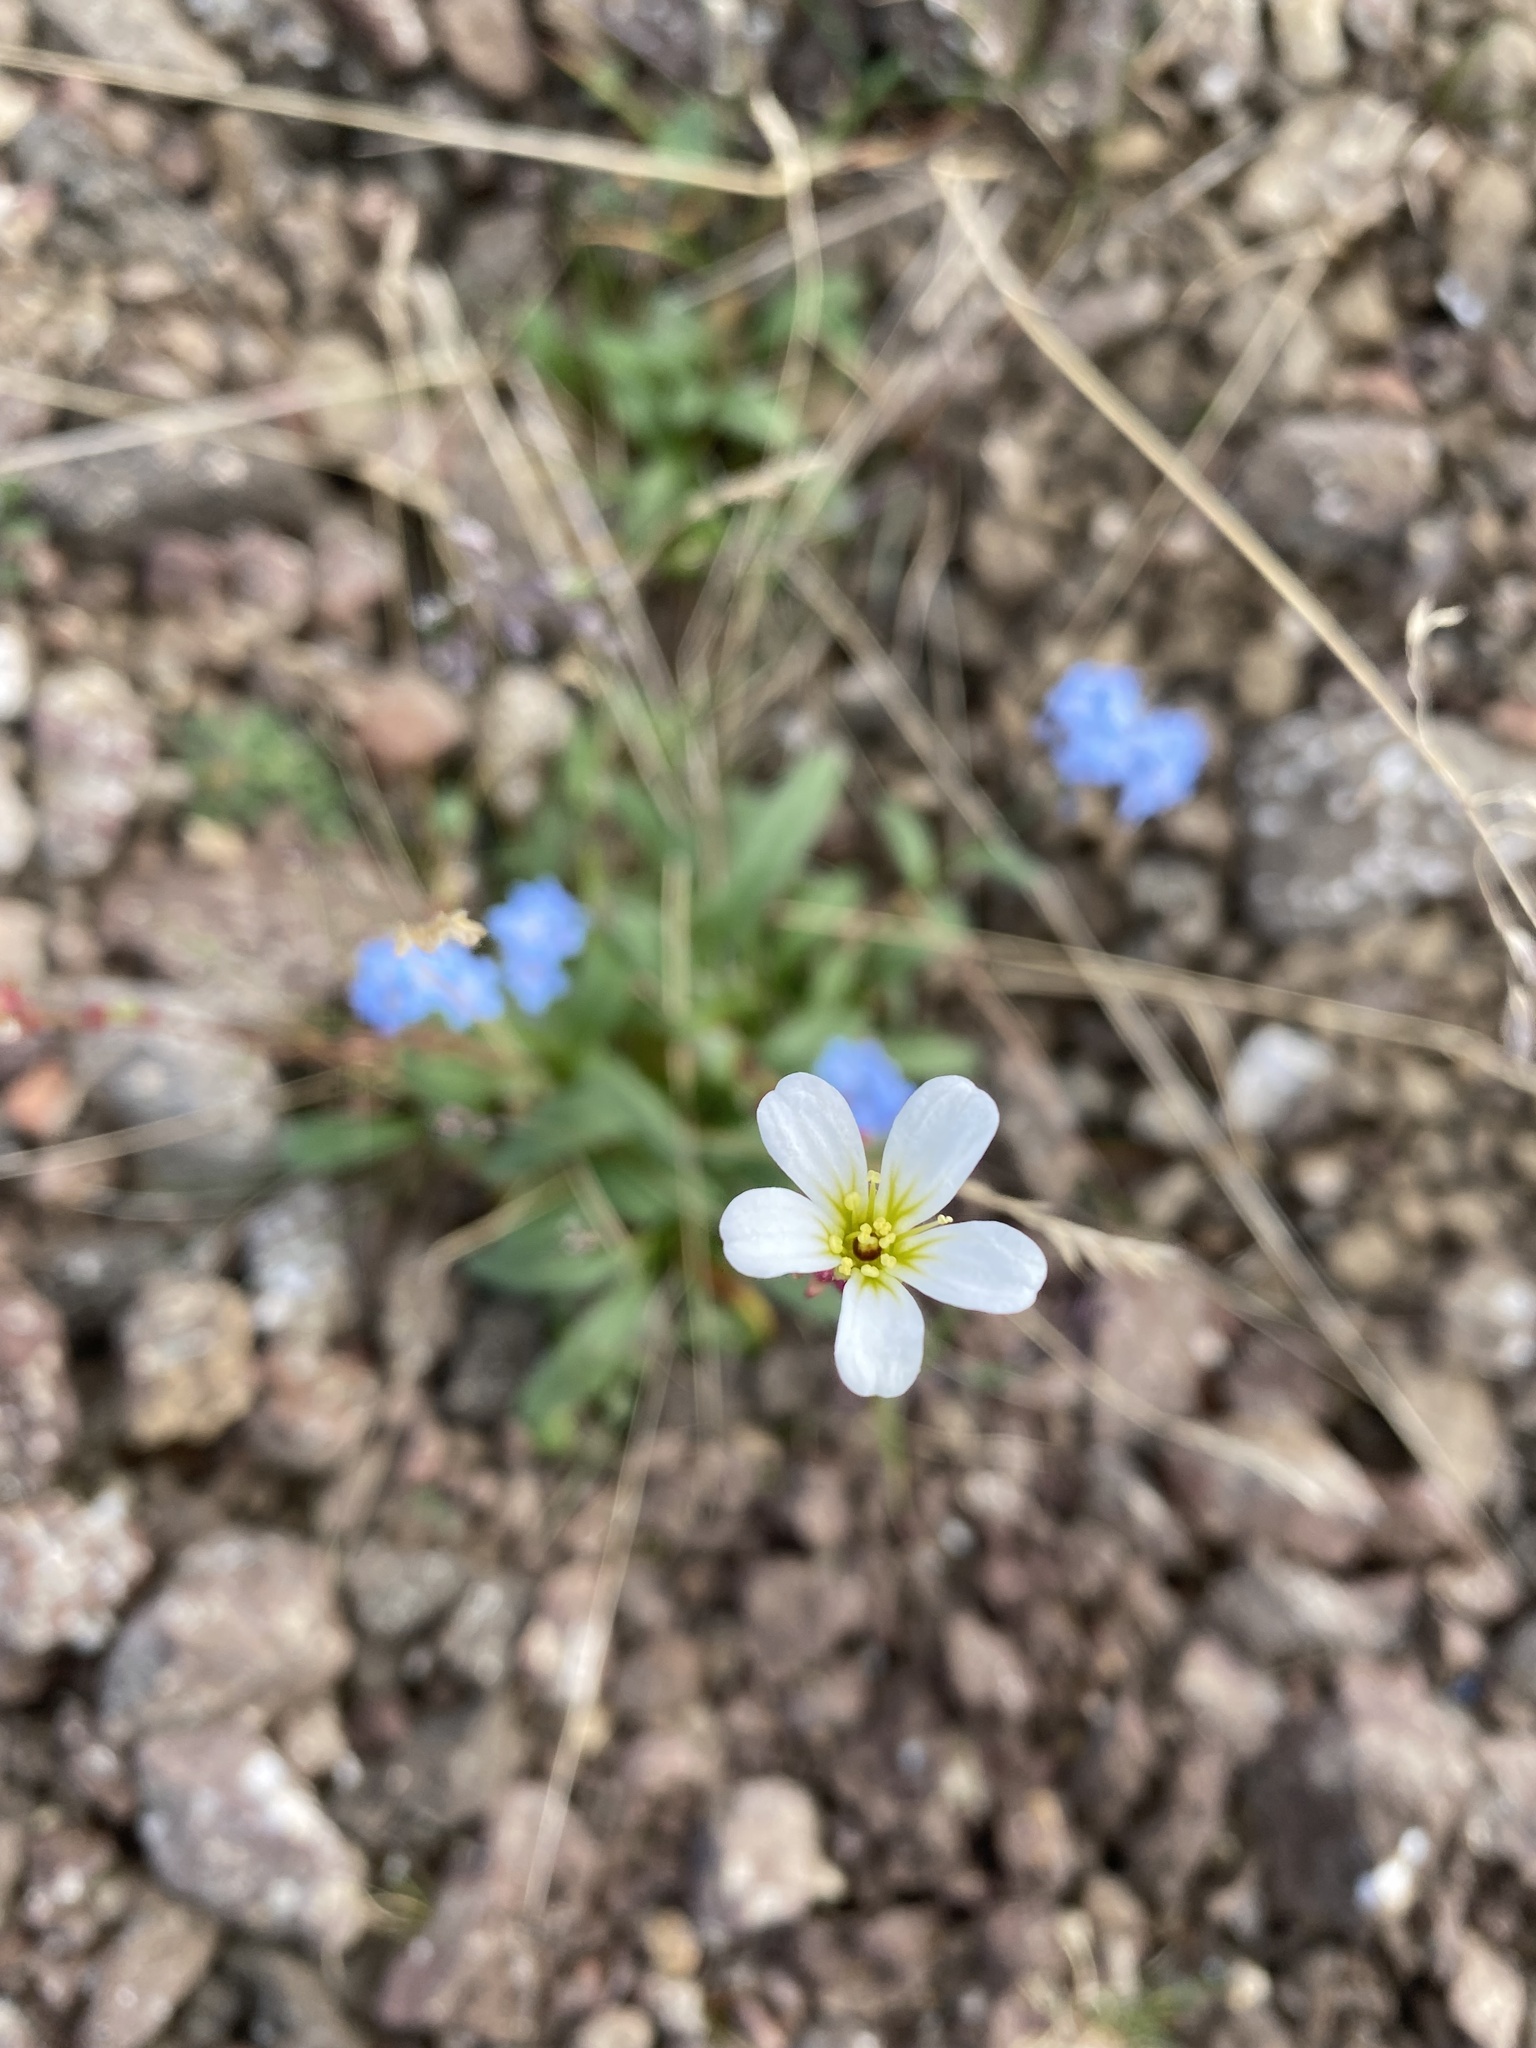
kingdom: Plantae
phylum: Tracheophyta
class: Magnoliopsida
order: Saxifragales
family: Saxifragaceae
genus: Saxifraga
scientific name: Saxifraga cernua
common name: Drooping saxifrage
